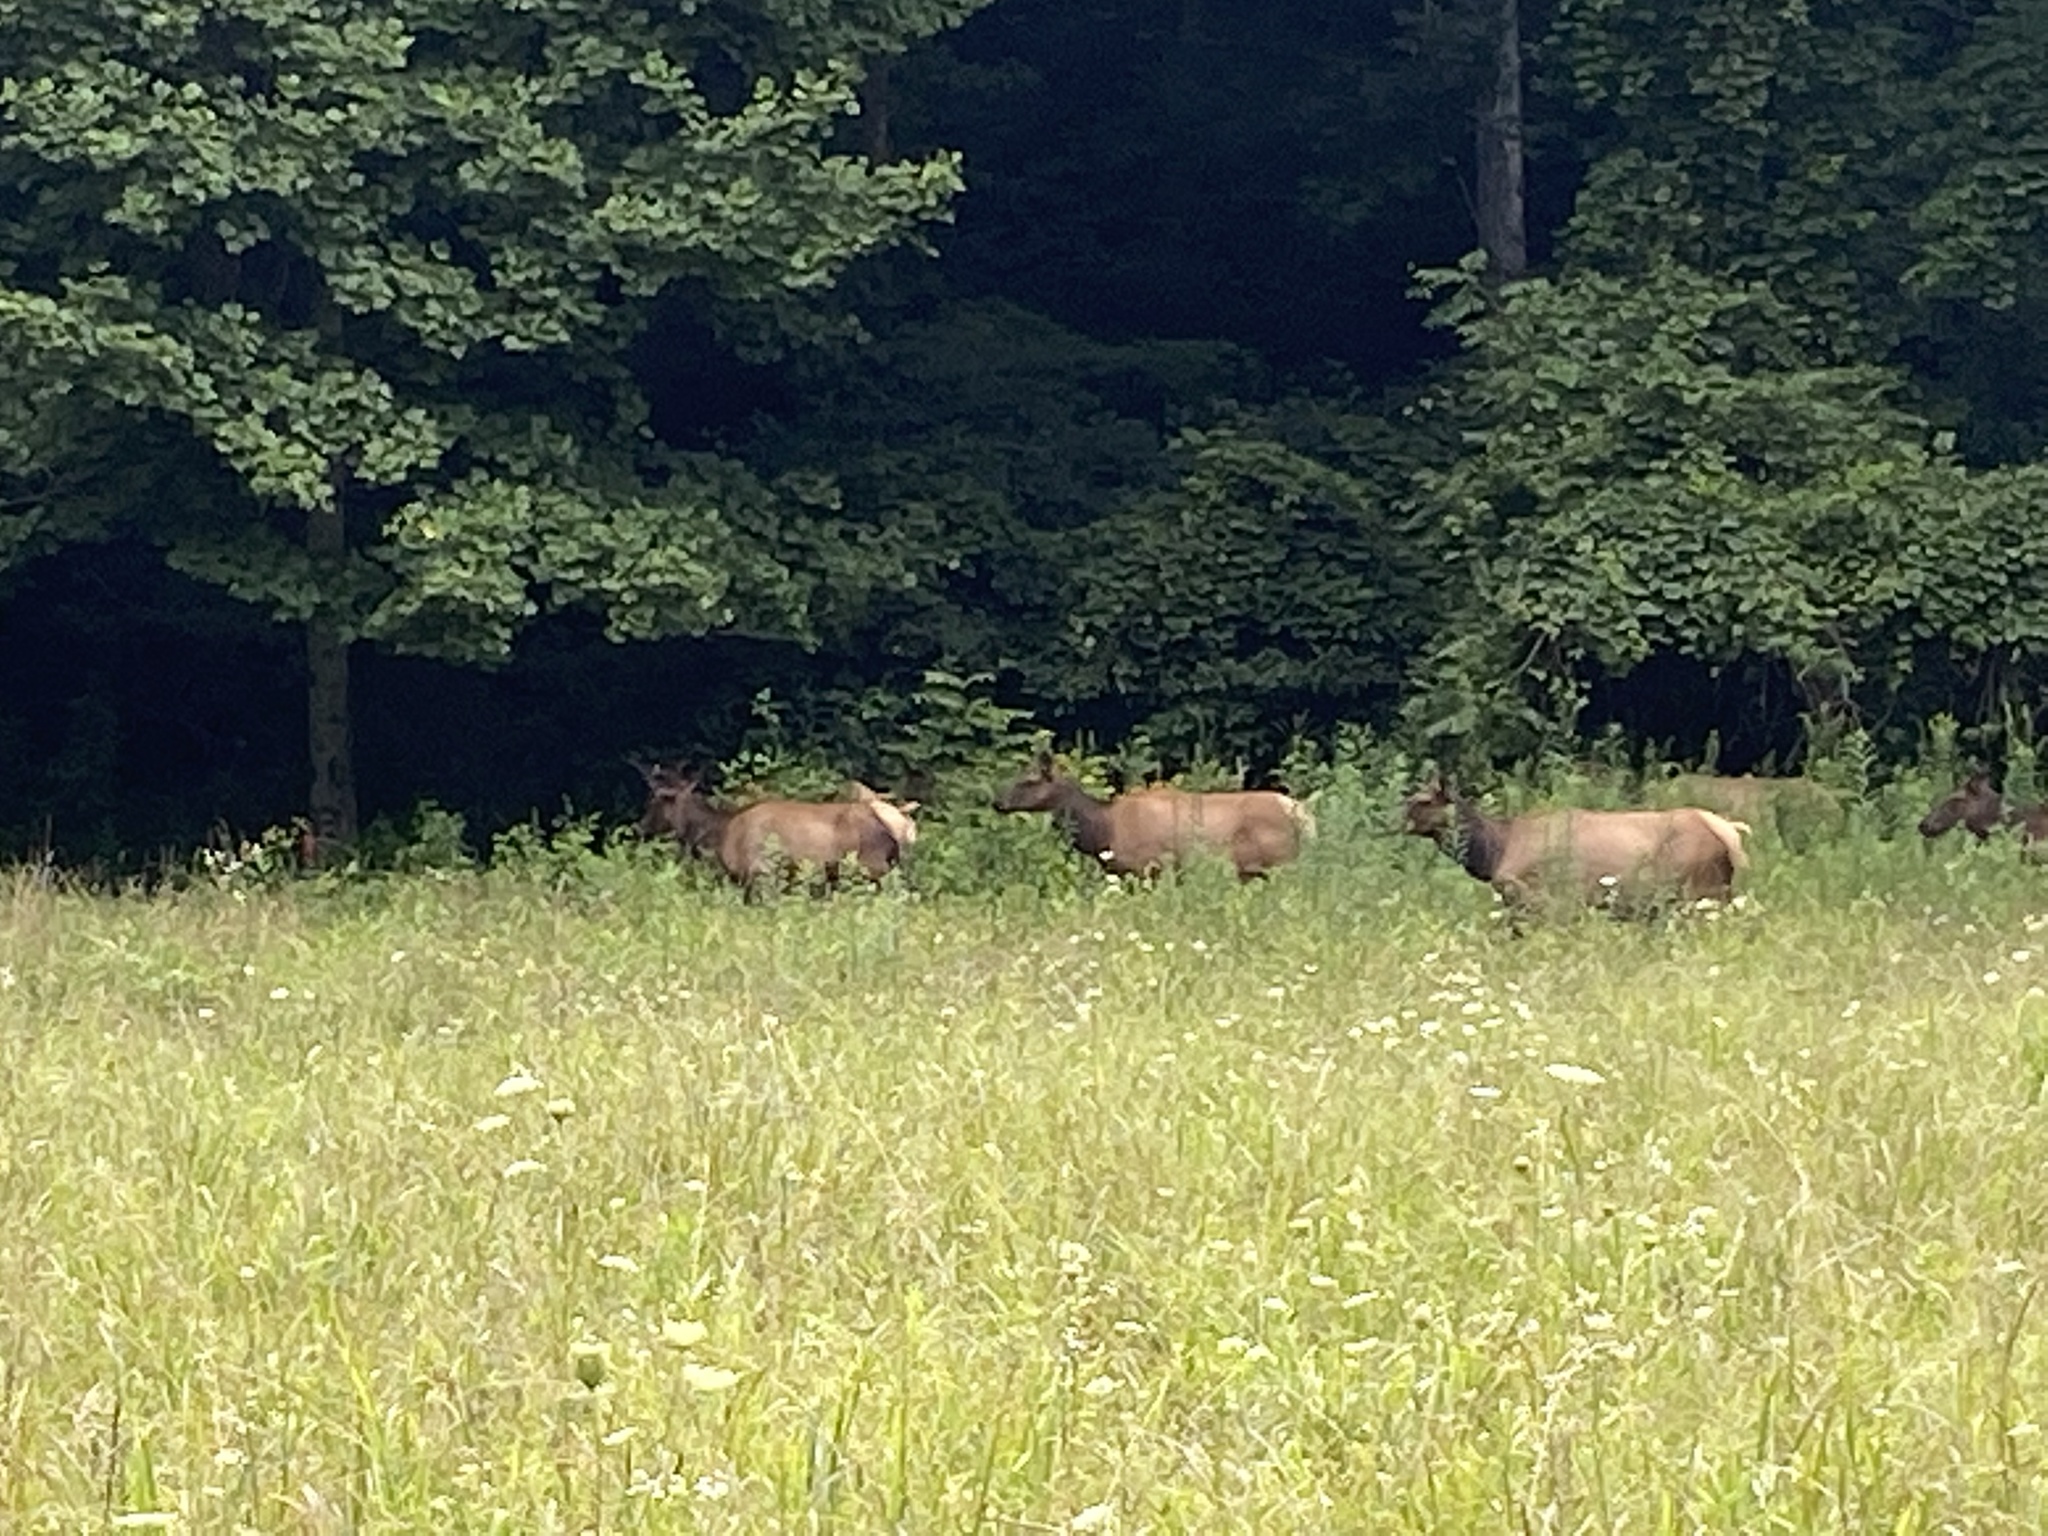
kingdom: Animalia
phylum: Chordata
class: Mammalia
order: Artiodactyla
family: Cervidae
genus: Cervus
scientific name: Cervus elaphus
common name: Red deer
